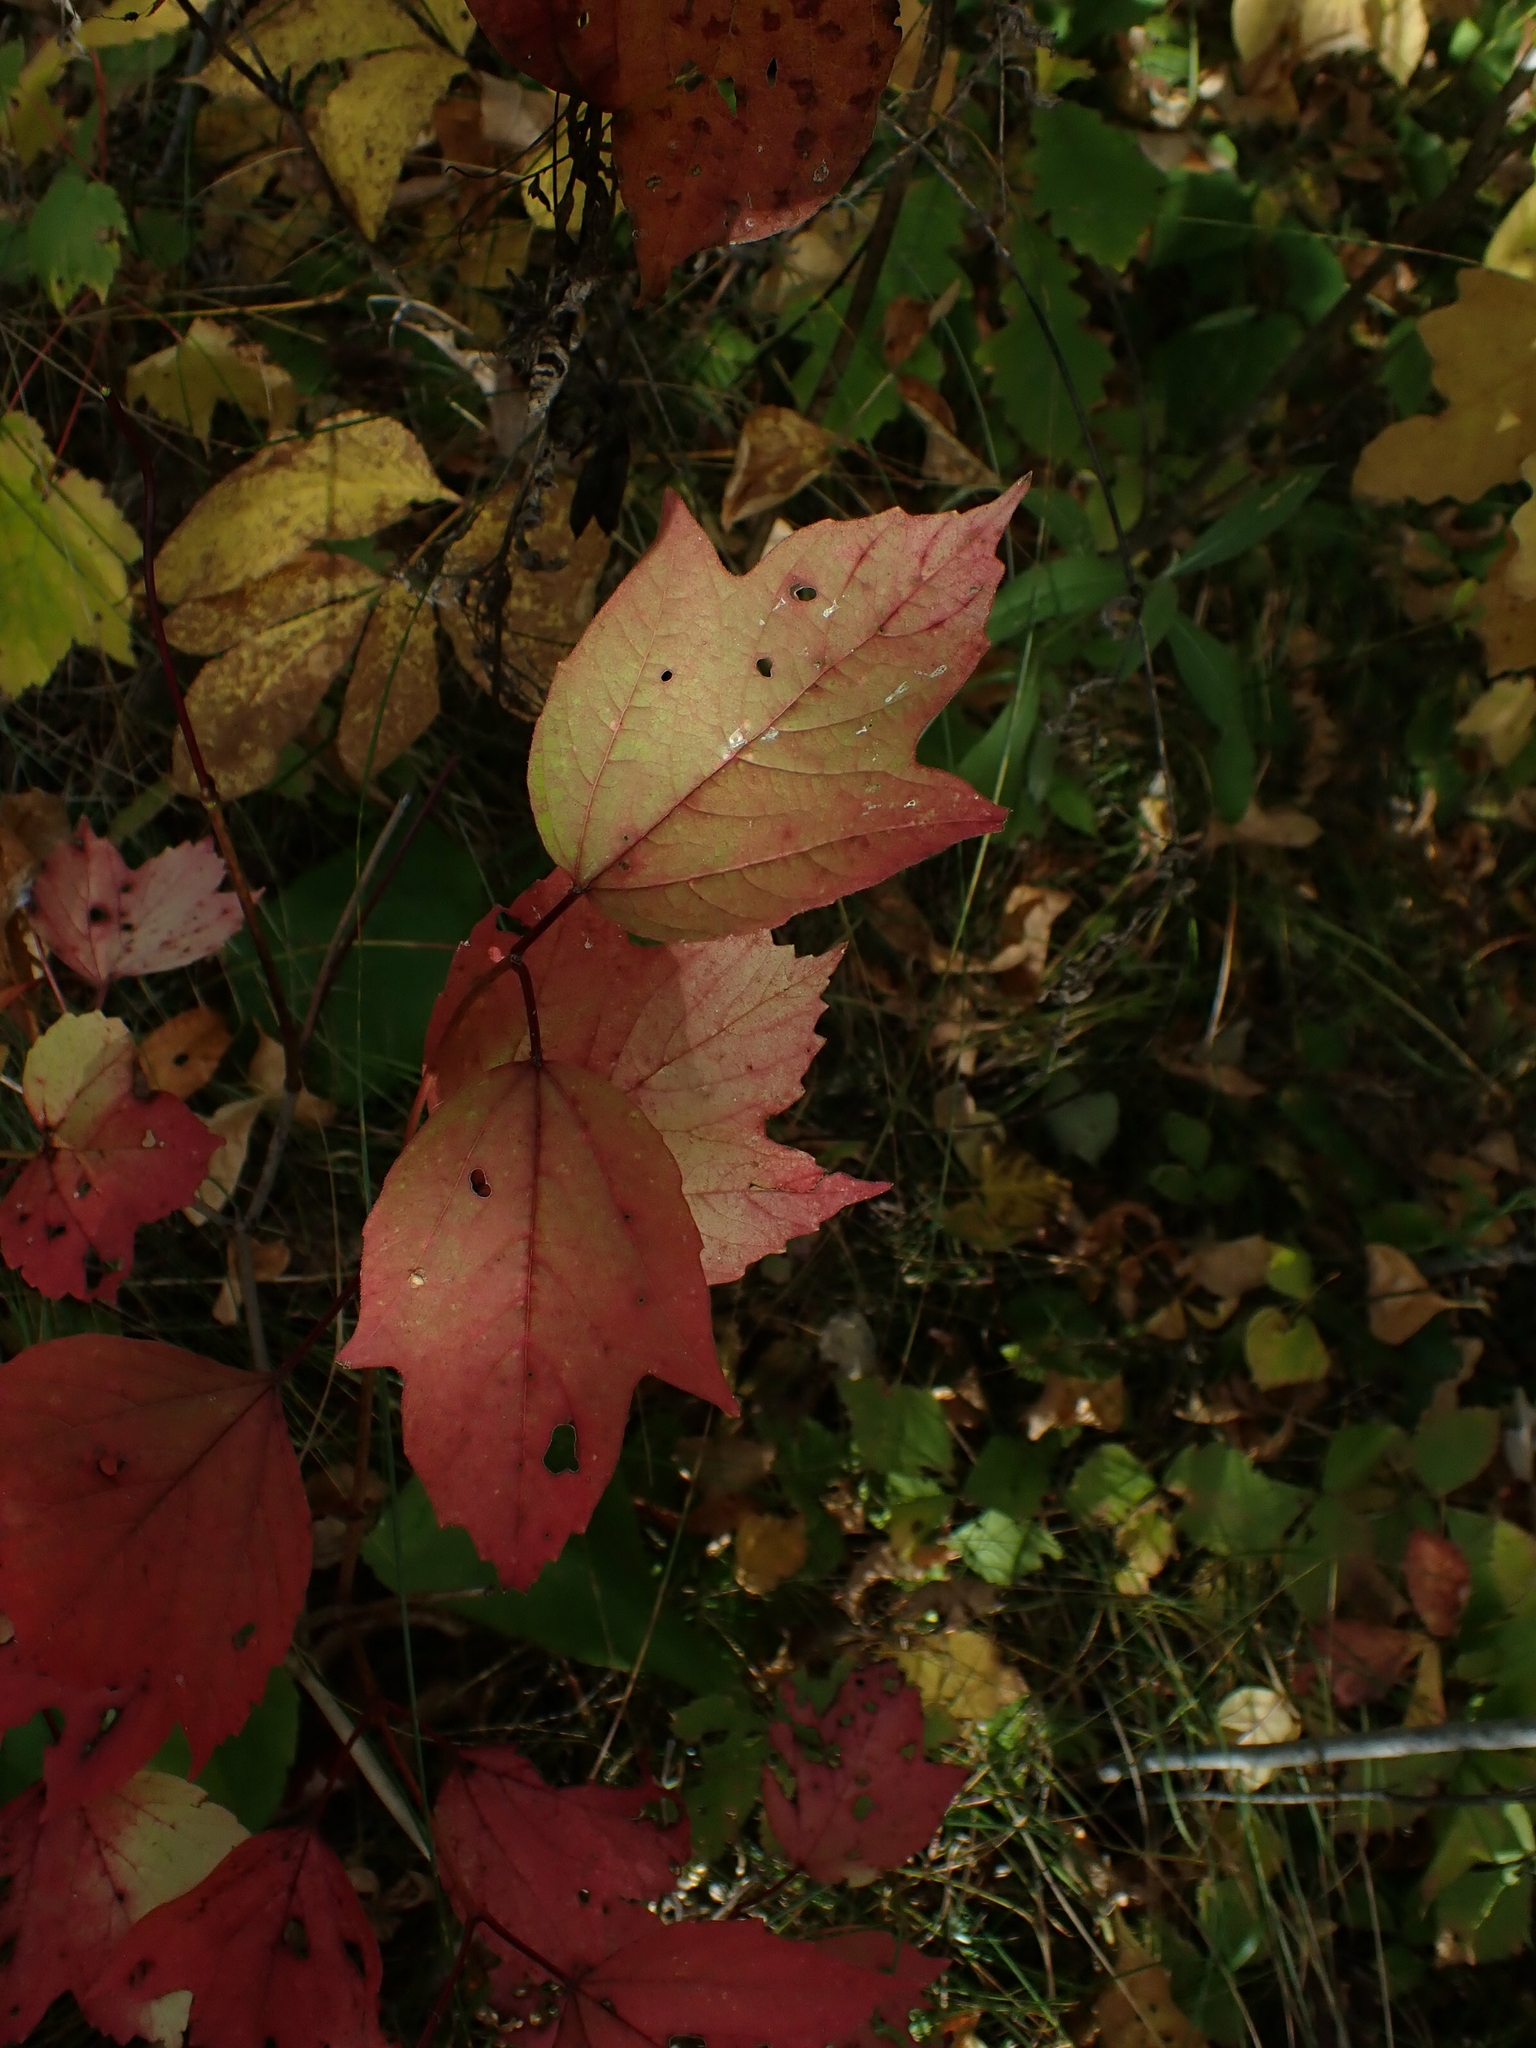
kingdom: Plantae
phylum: Tracheophyta
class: Magnoliopsida
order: Dipsacales
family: Viburnaceae
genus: Viburnum
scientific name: Viburnum trilobum
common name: American cranberrybush
